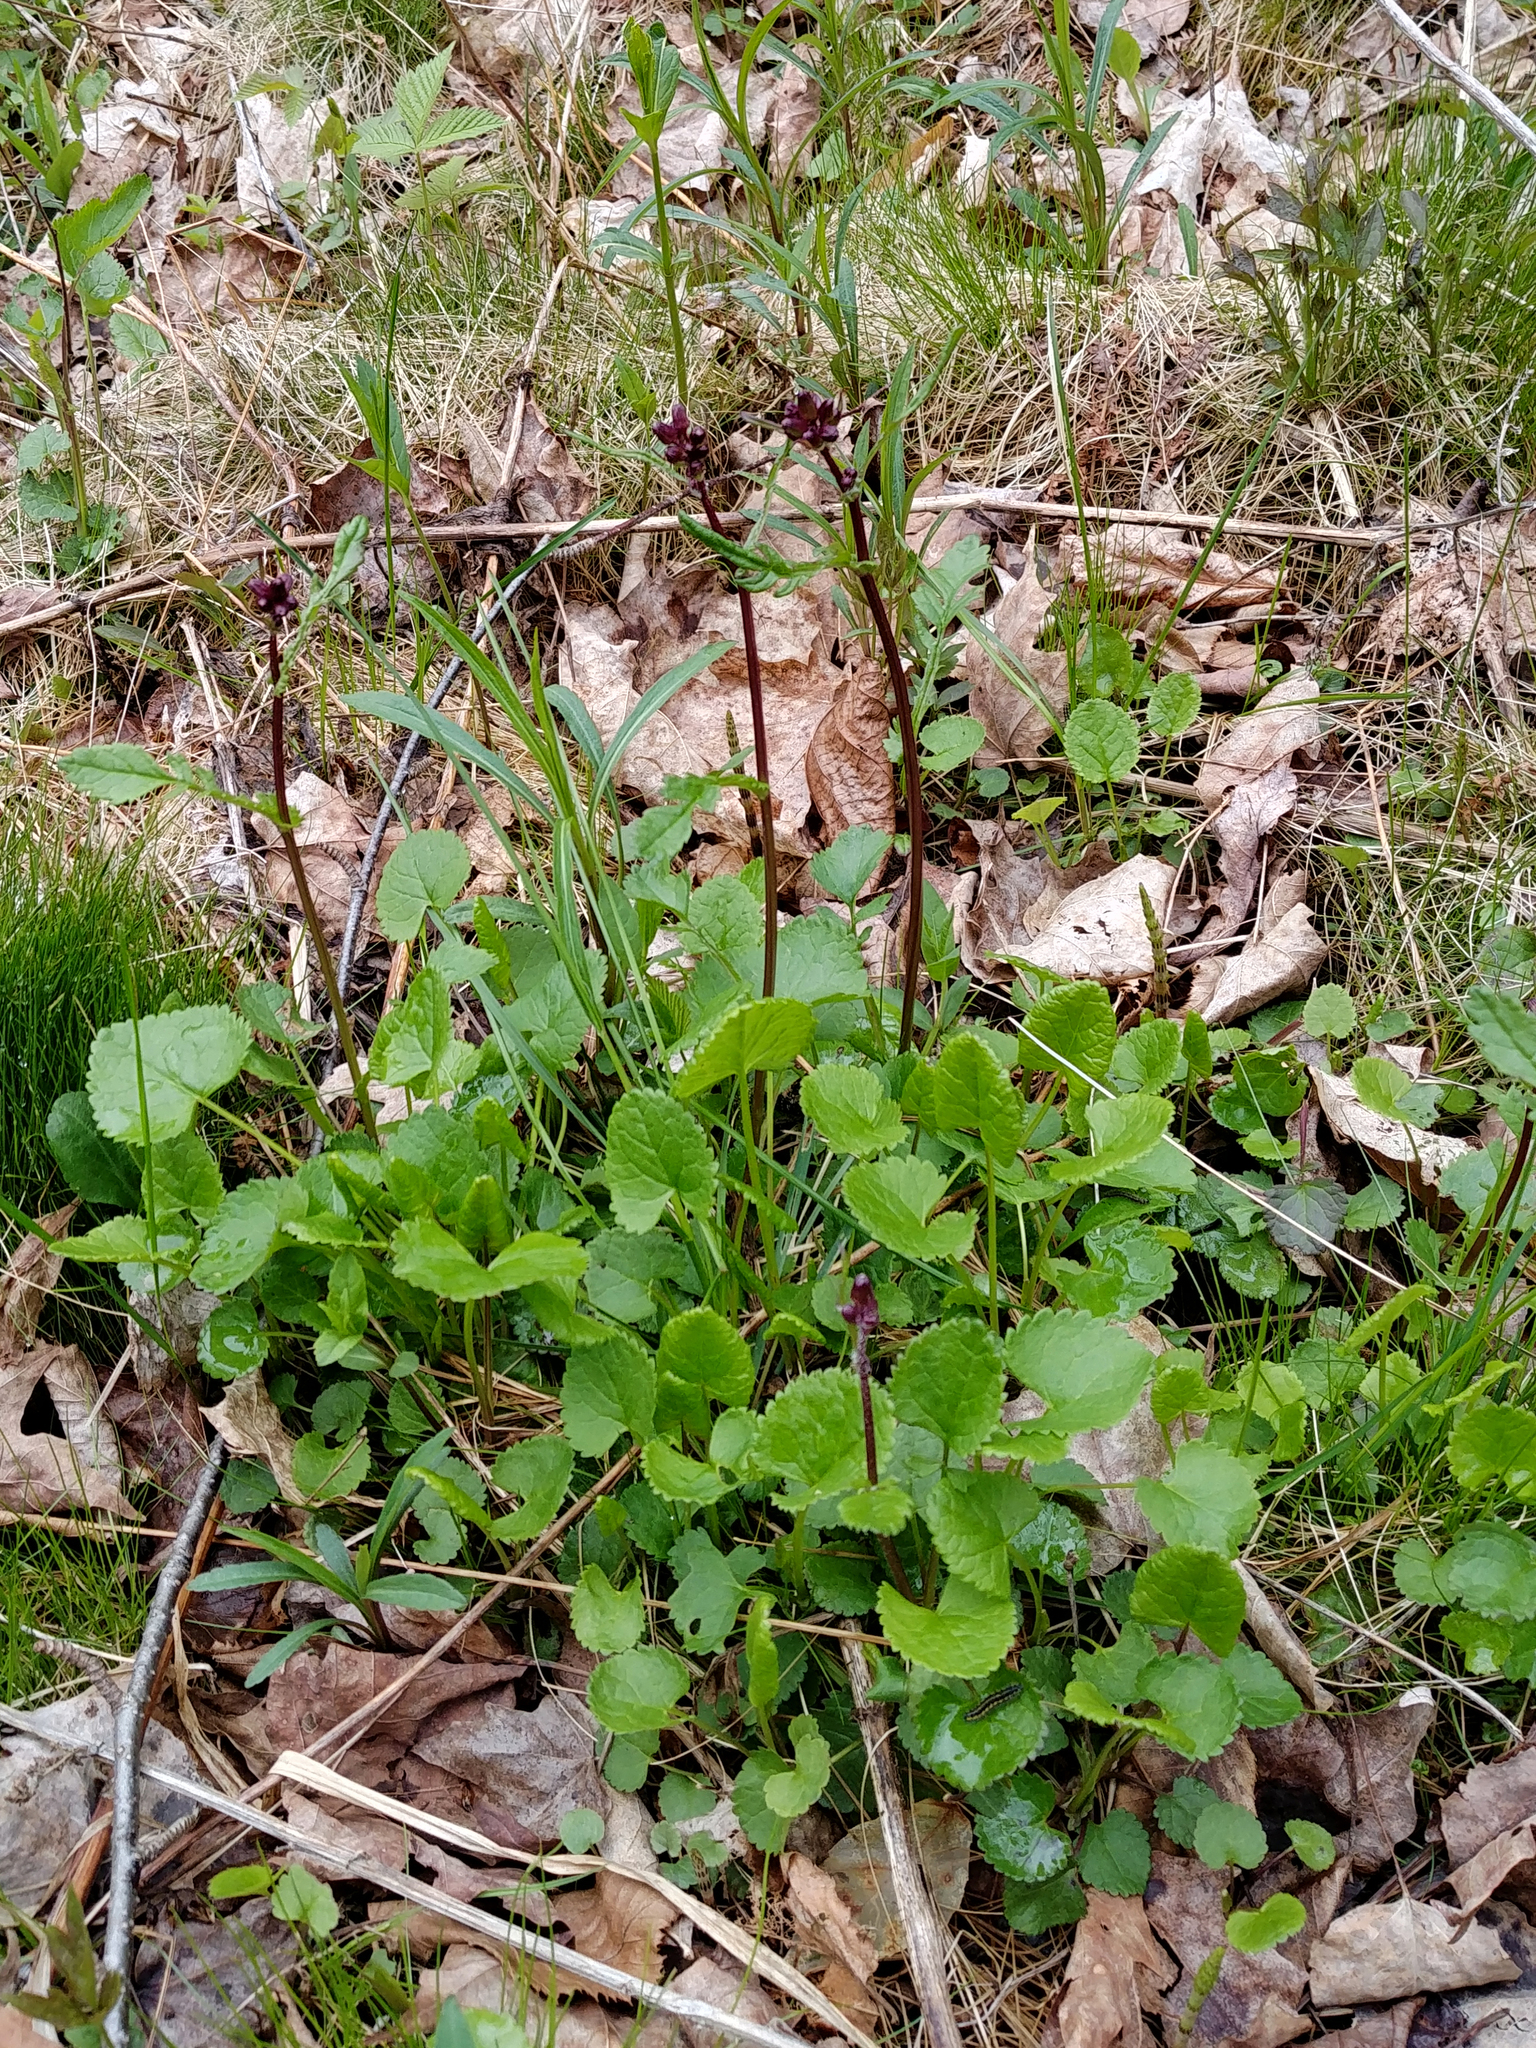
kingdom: Plantae
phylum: Tracheophyta
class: Magnoliopsida
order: Asterales
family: Asteraceae
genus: Packera
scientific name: Packera aurea
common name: Golden groundsel
